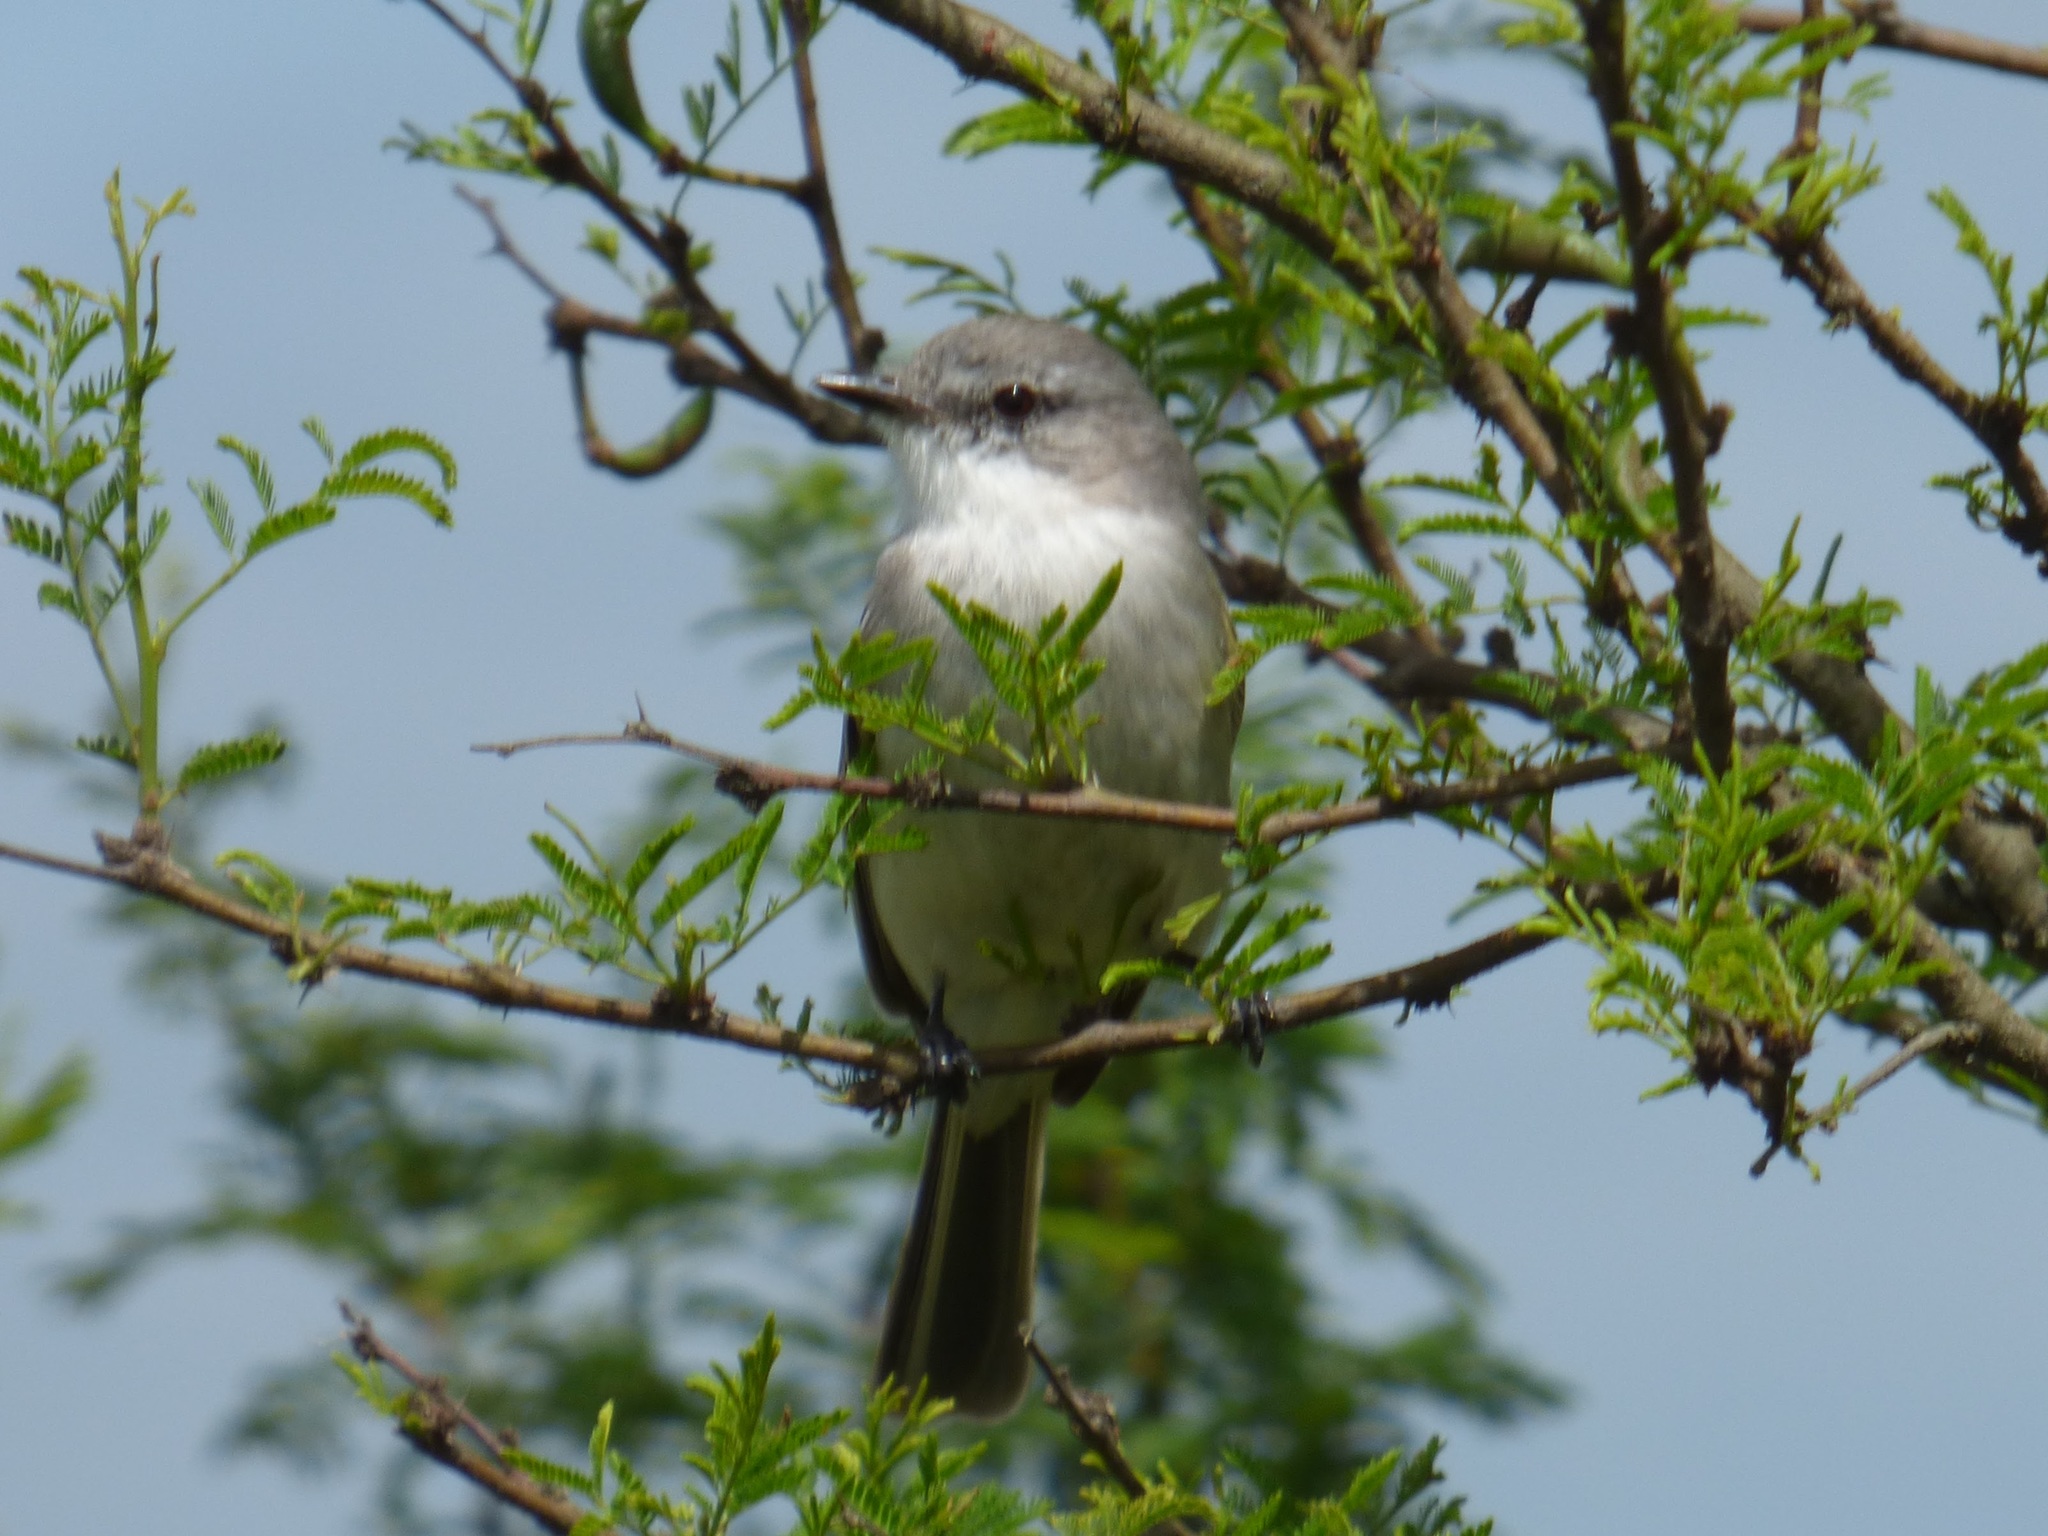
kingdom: Animalia
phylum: Chordata
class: Aves
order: Passeriformes
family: Tyrannidae
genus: Suiriri
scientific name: Suiriri suiriri
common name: Suiriri flycatcher
